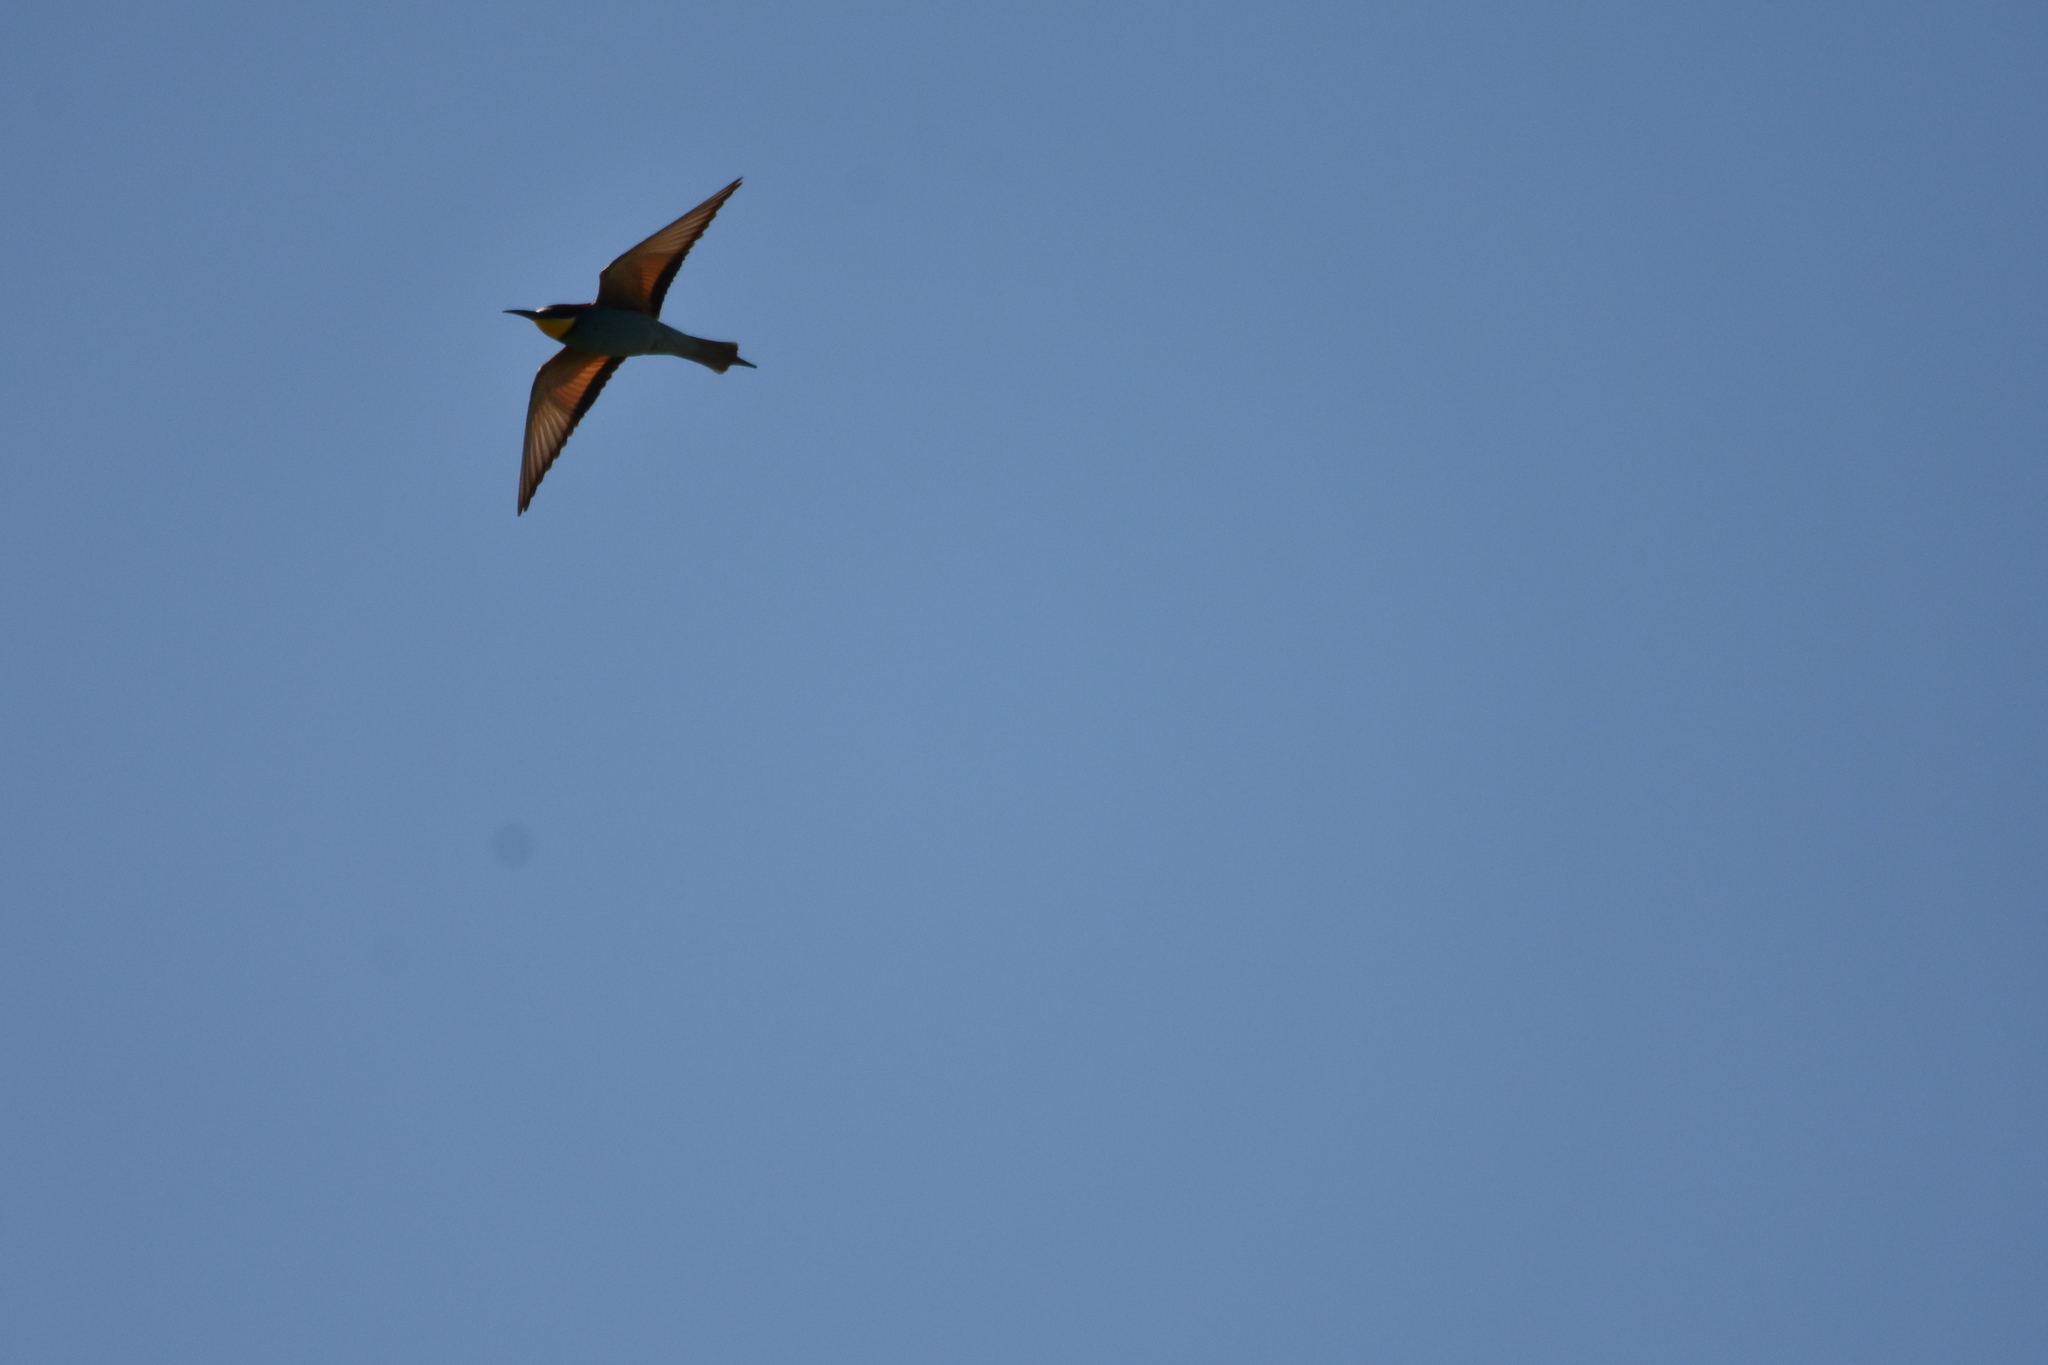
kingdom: Animalia
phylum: Chordata
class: Aves
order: Coraciiformes
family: Meropidae
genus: Merops
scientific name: Merops apiaster
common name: European bee-eater
